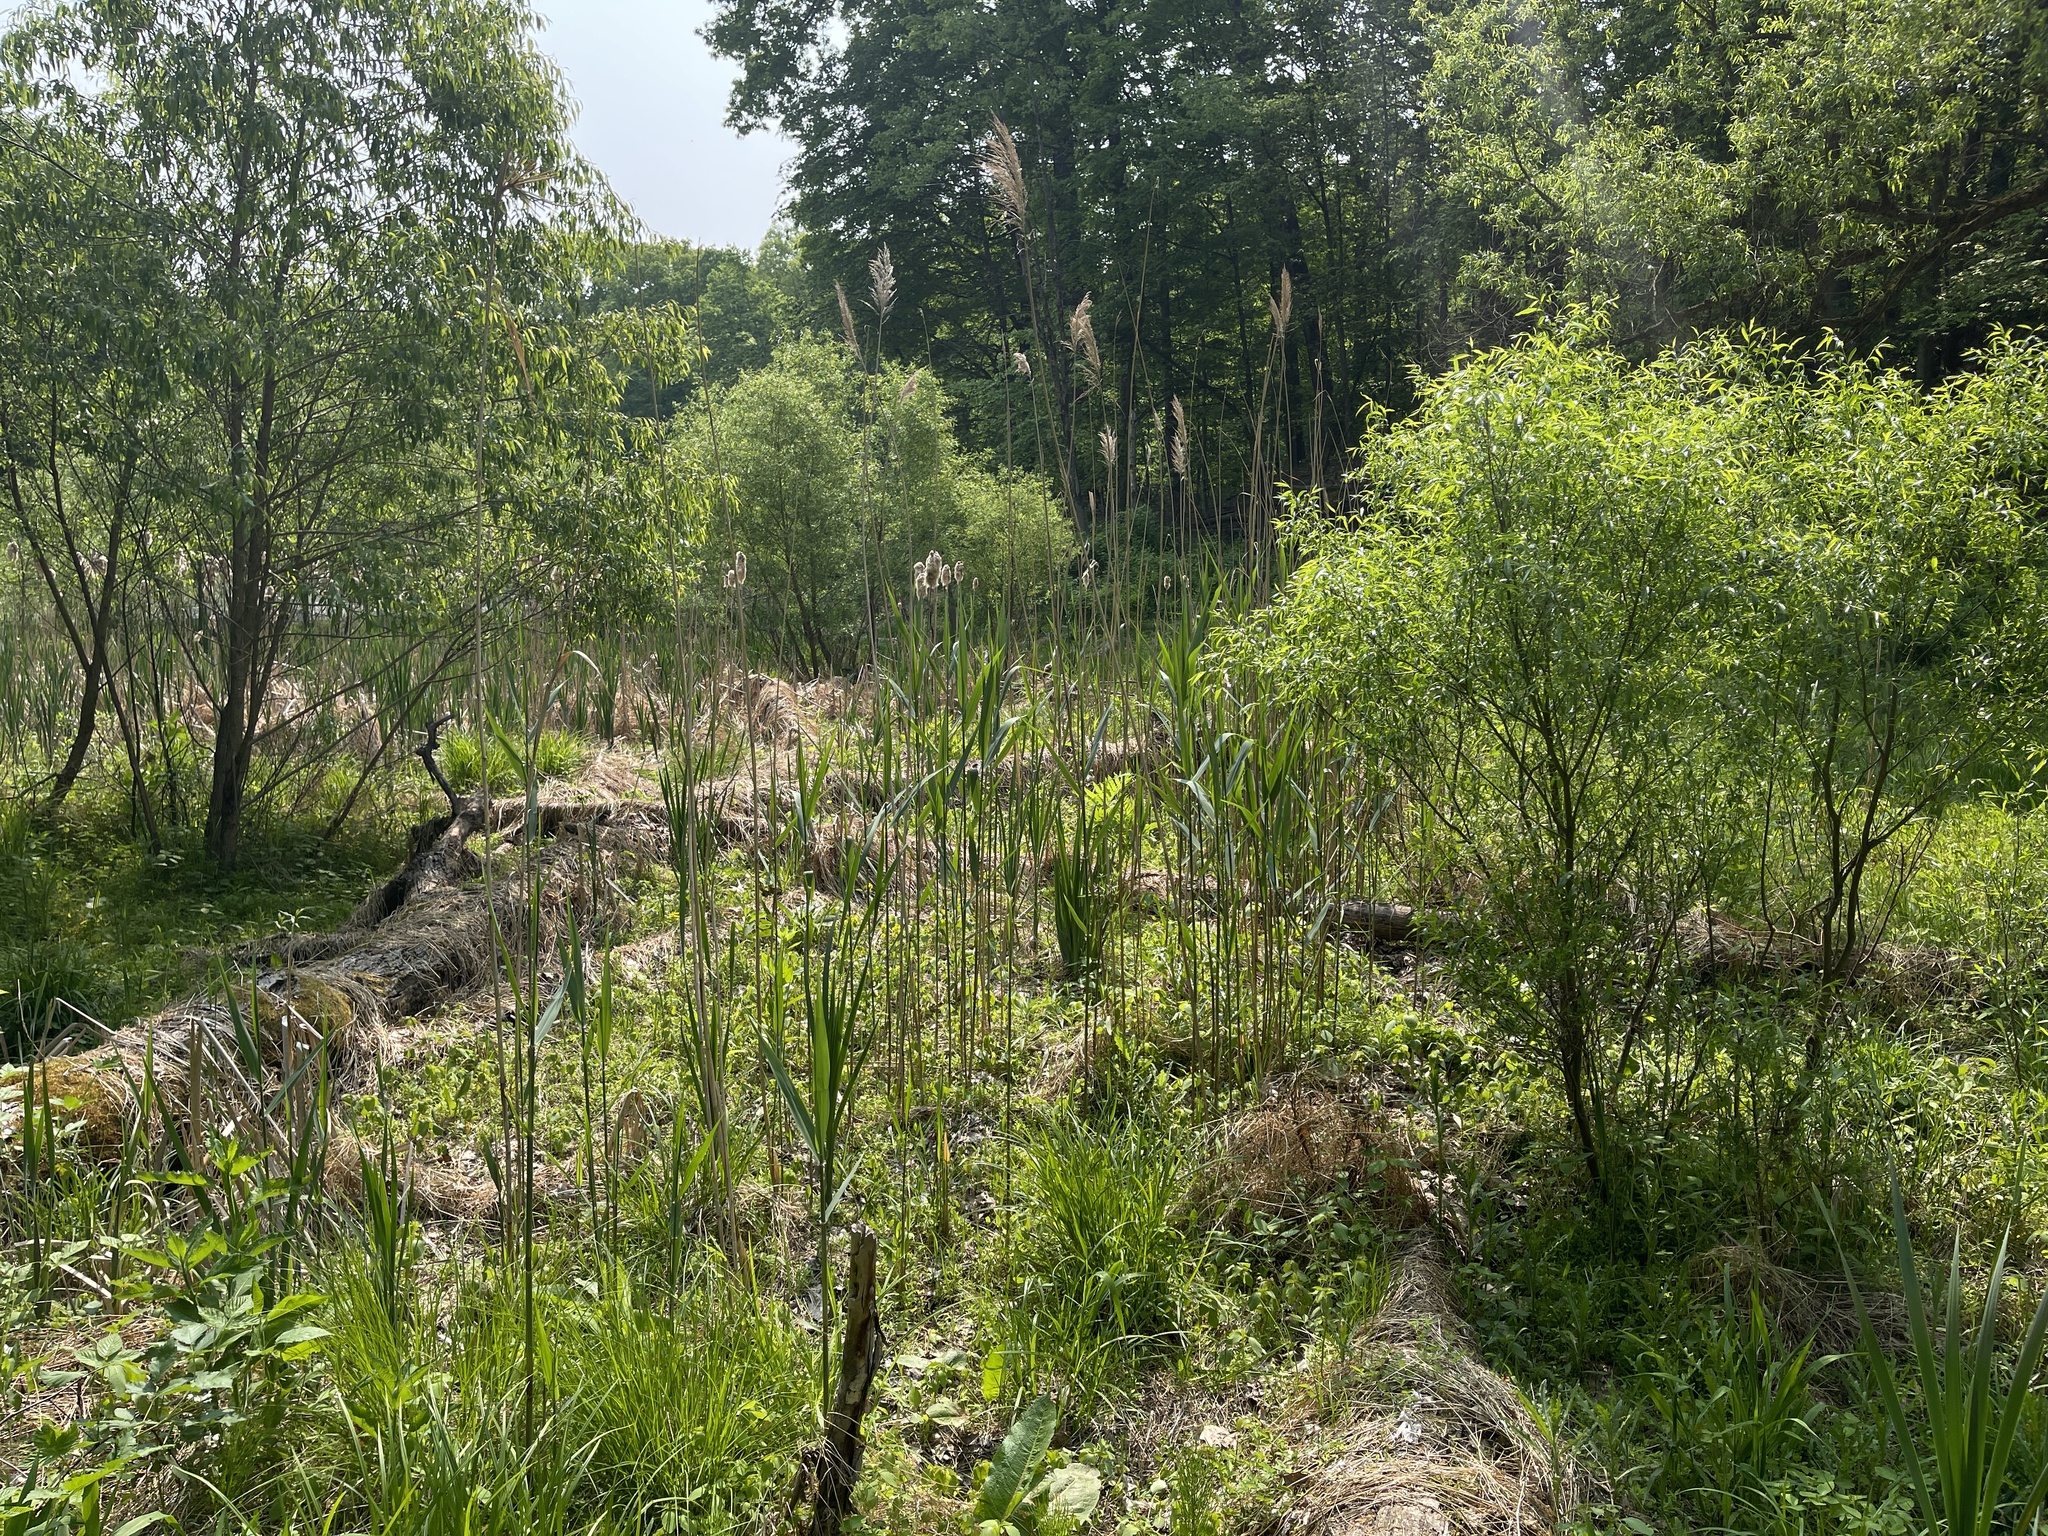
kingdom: Plantae
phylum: Tracheophyta
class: Liliopsida
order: Poales
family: Poaceae
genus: Phragmites
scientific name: Phragmites australis
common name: Common reed
